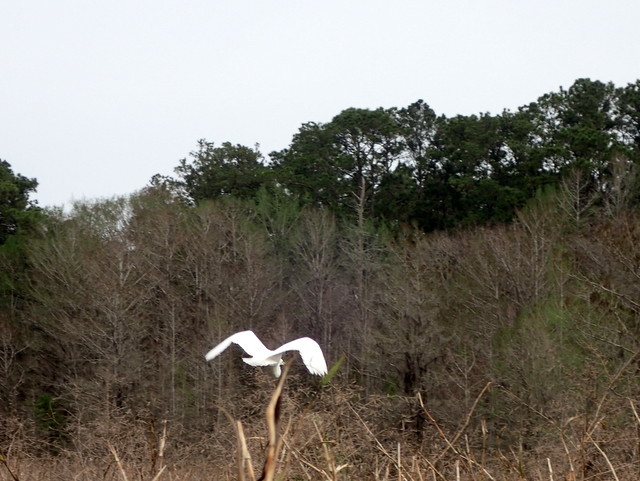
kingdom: Animalia
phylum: Chordata
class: Aves
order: Pelecaniformes
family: Ardeidae
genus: Ardea
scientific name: Ardea alba
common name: Great egret
